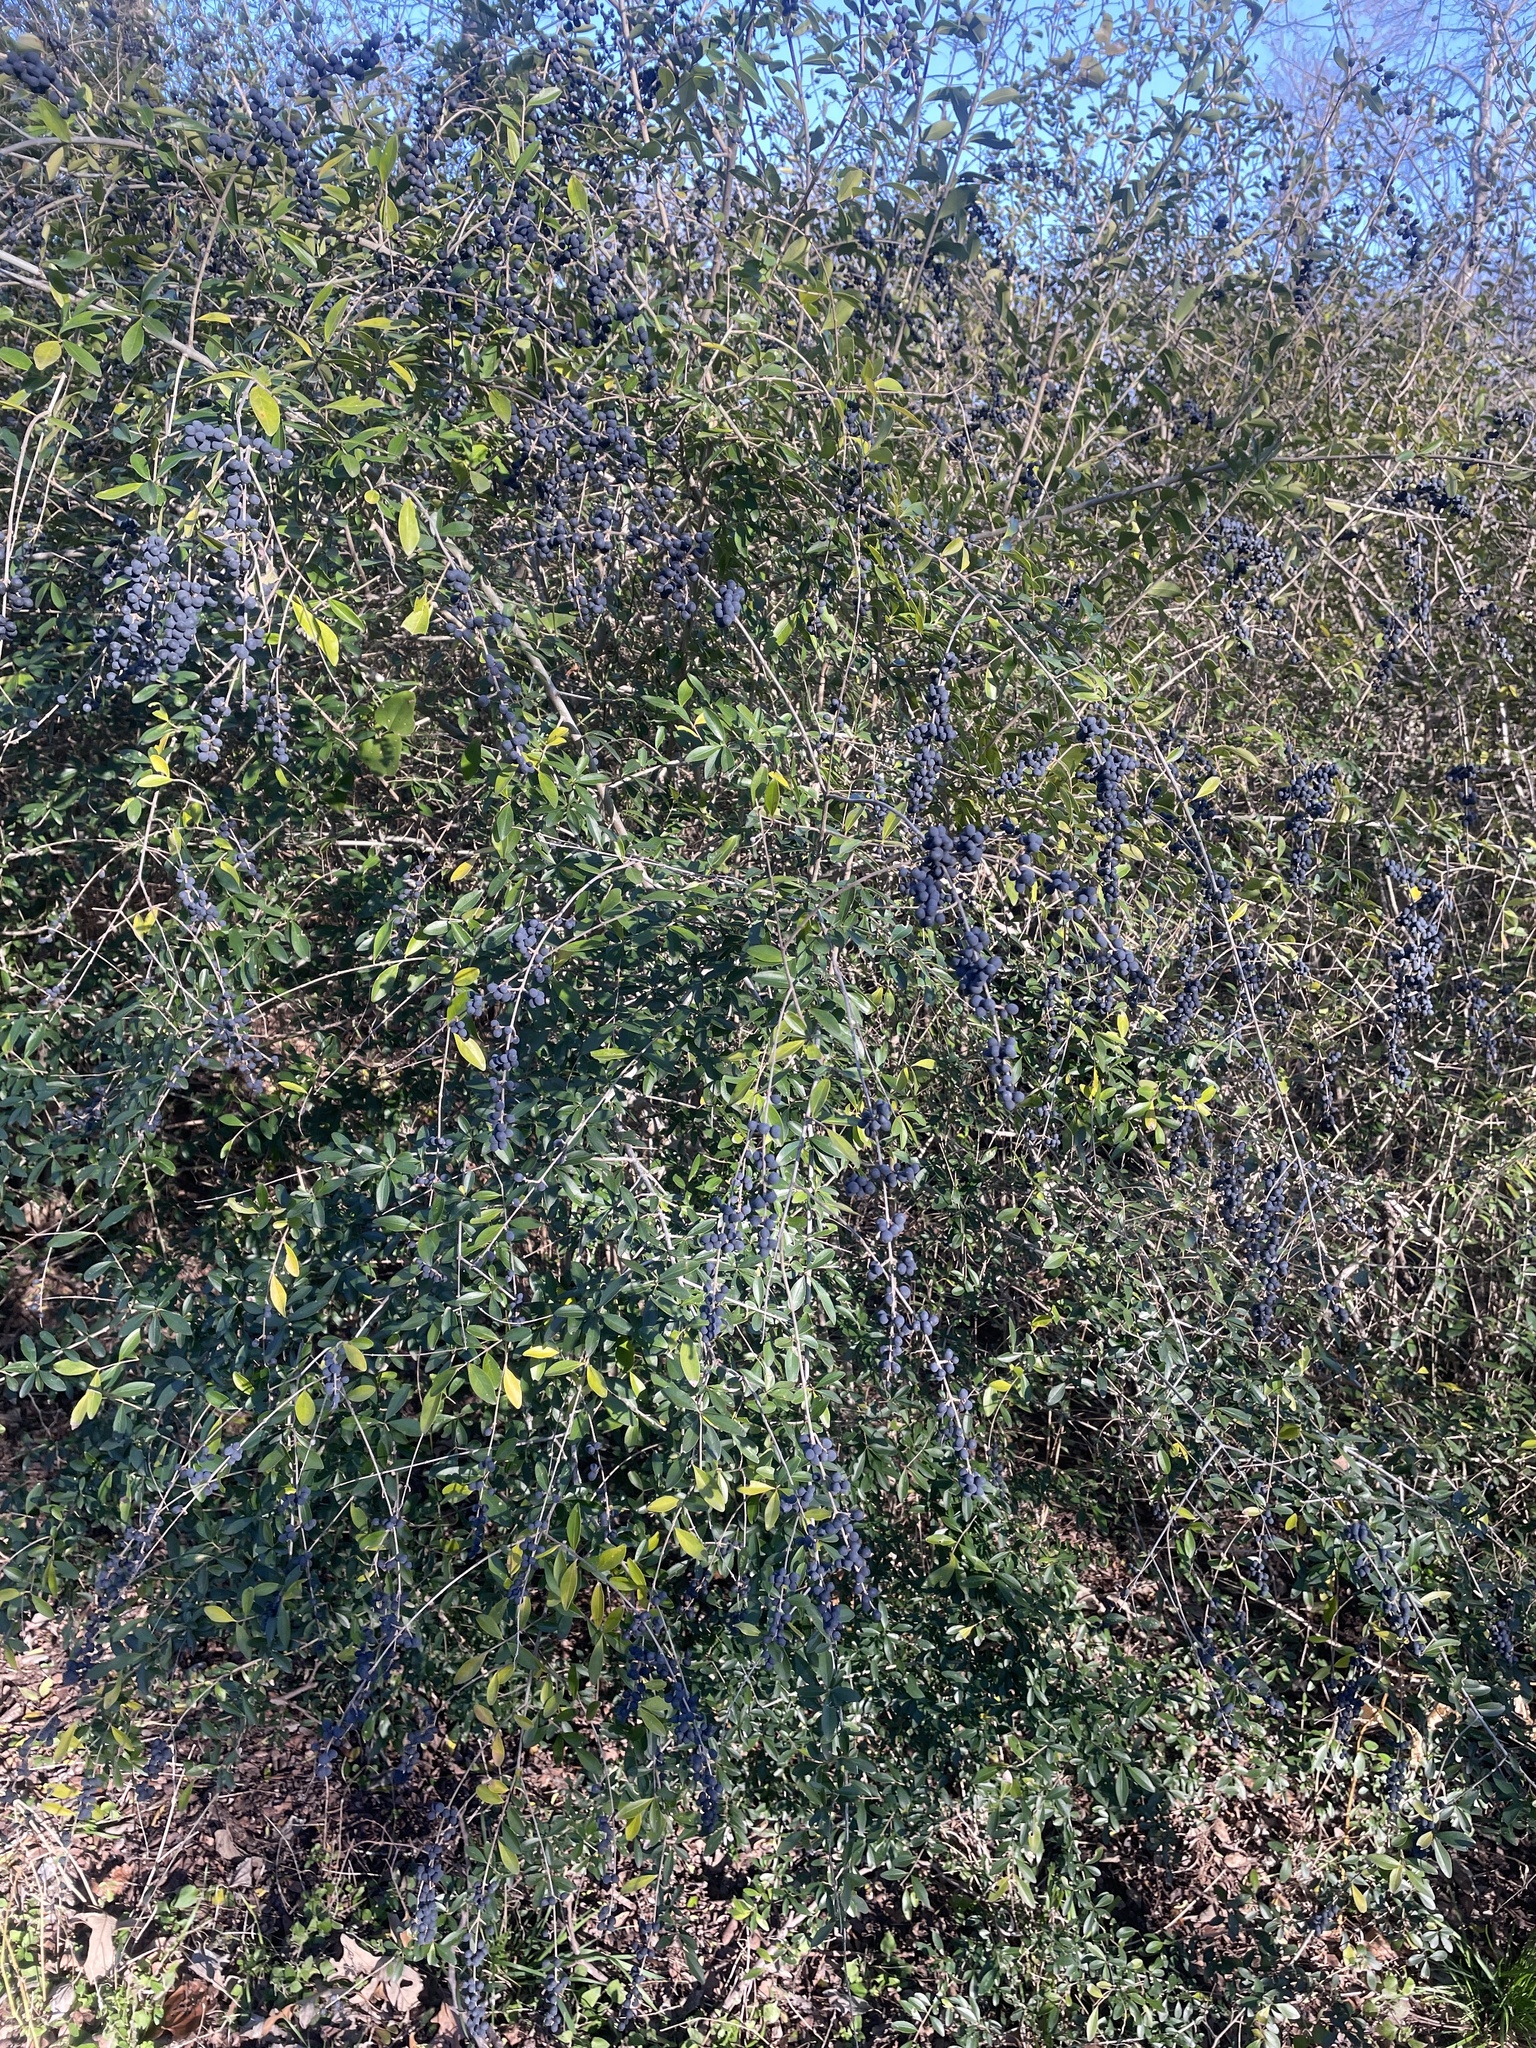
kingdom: Plantae
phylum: Tracheophyta
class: Magnoliopsida
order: Lamiales
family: Oleaceae
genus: Ligustrum
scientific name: Ligustrum quihoui
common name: Waxyleaf privet
